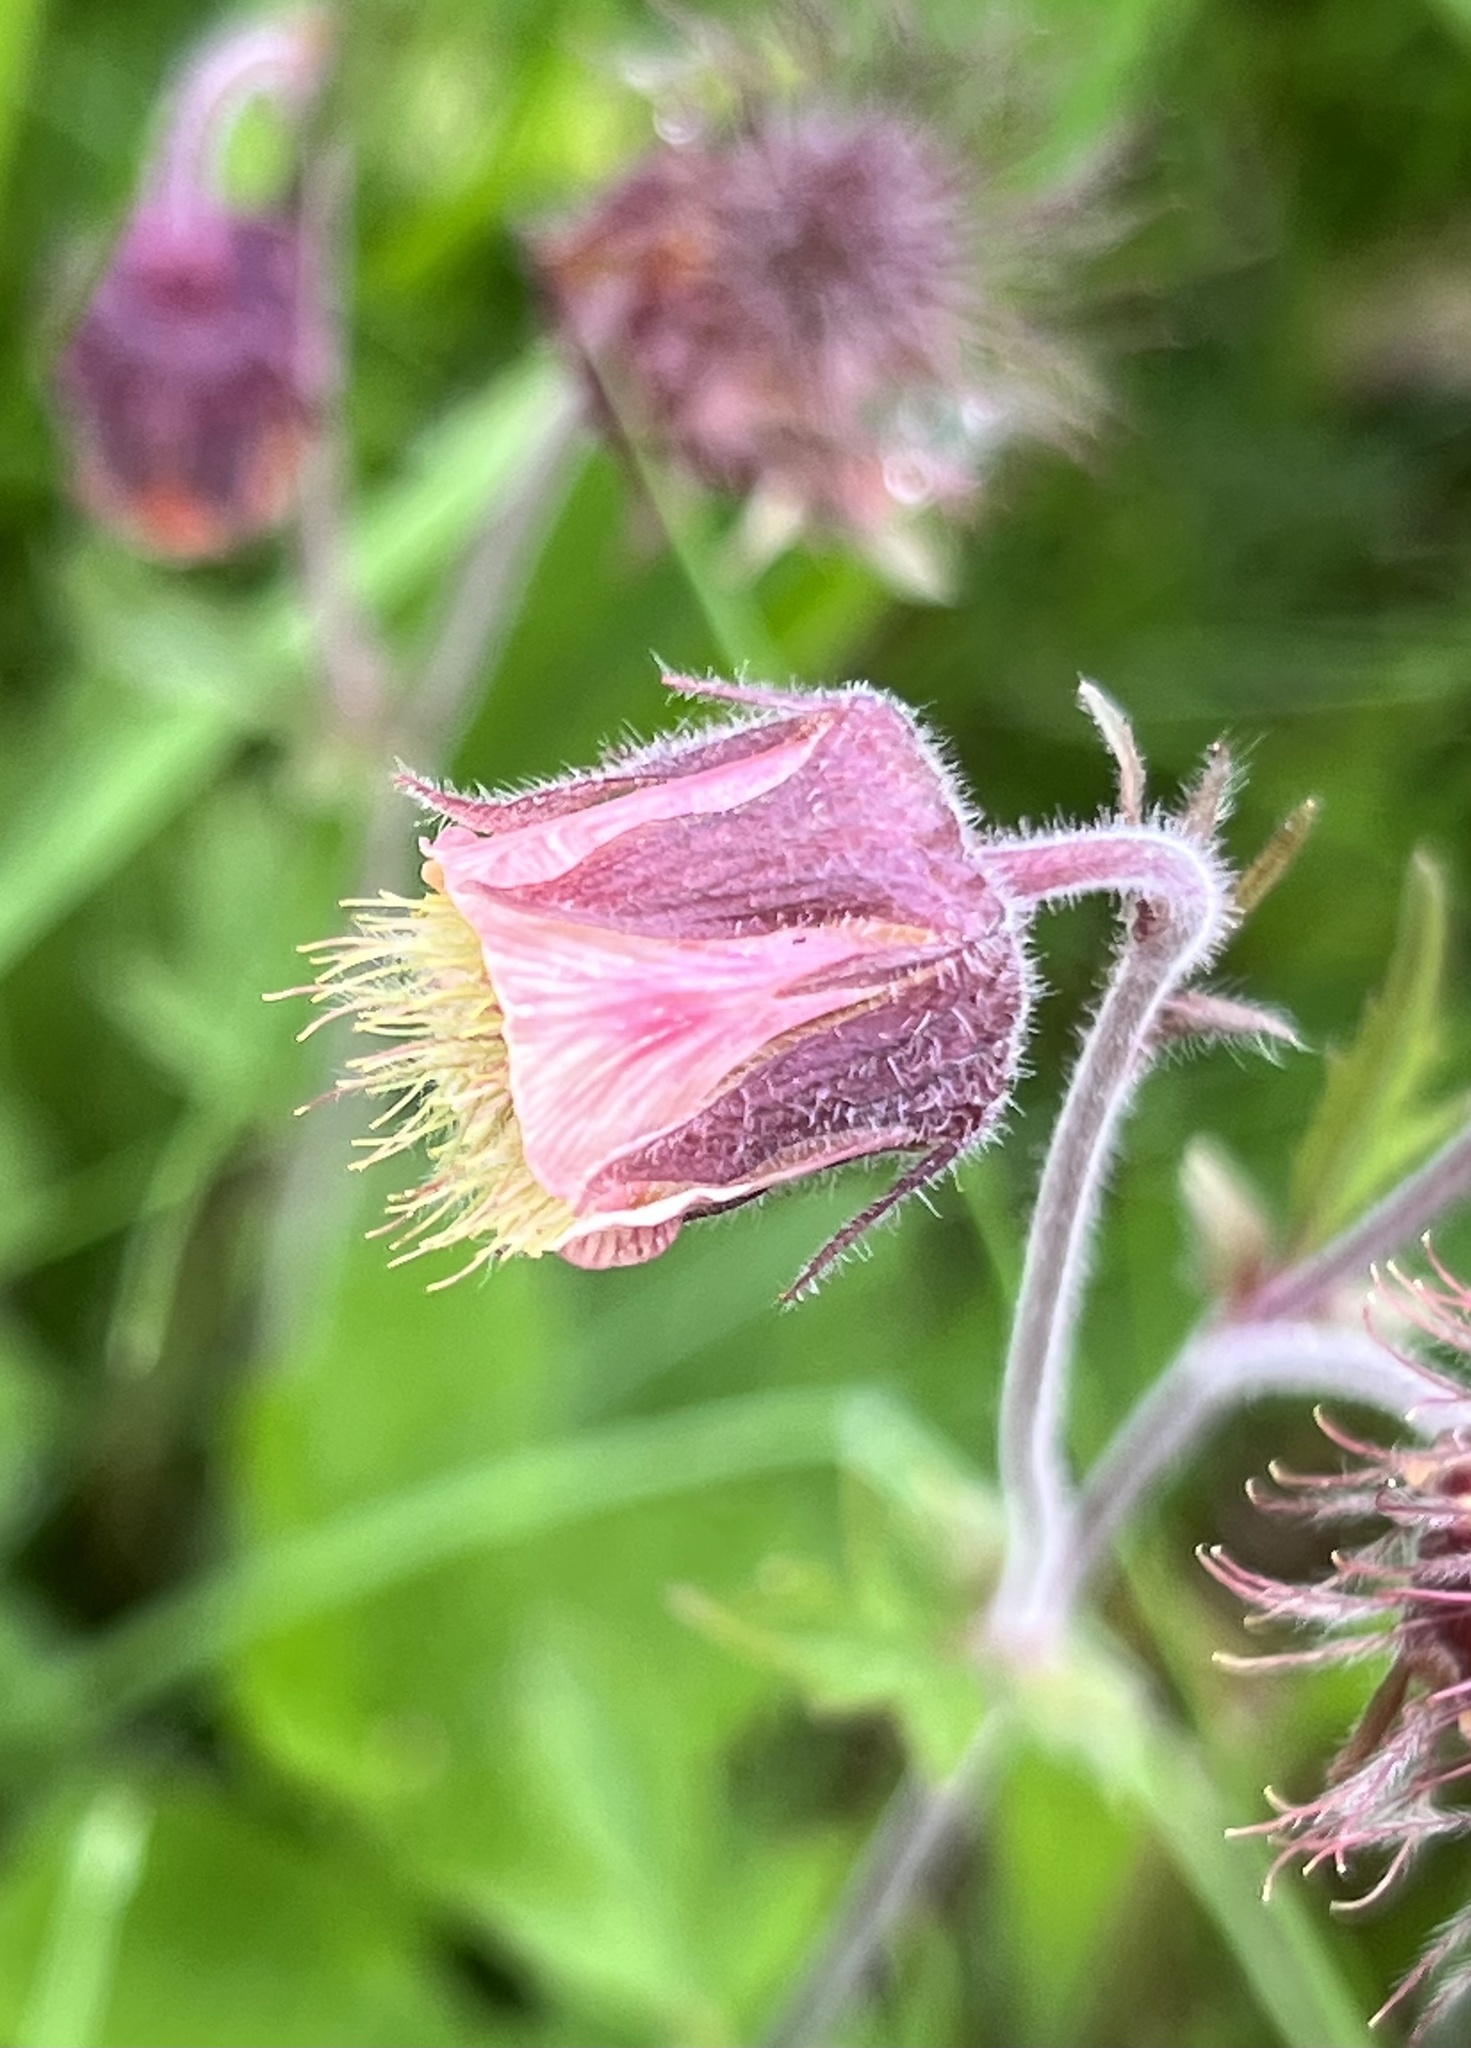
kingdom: Plantae
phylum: Tracheophyta
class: Magnoliopsida
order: Rosales
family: Rosaceae
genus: Geum
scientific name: Geum rivale
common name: Water avens
